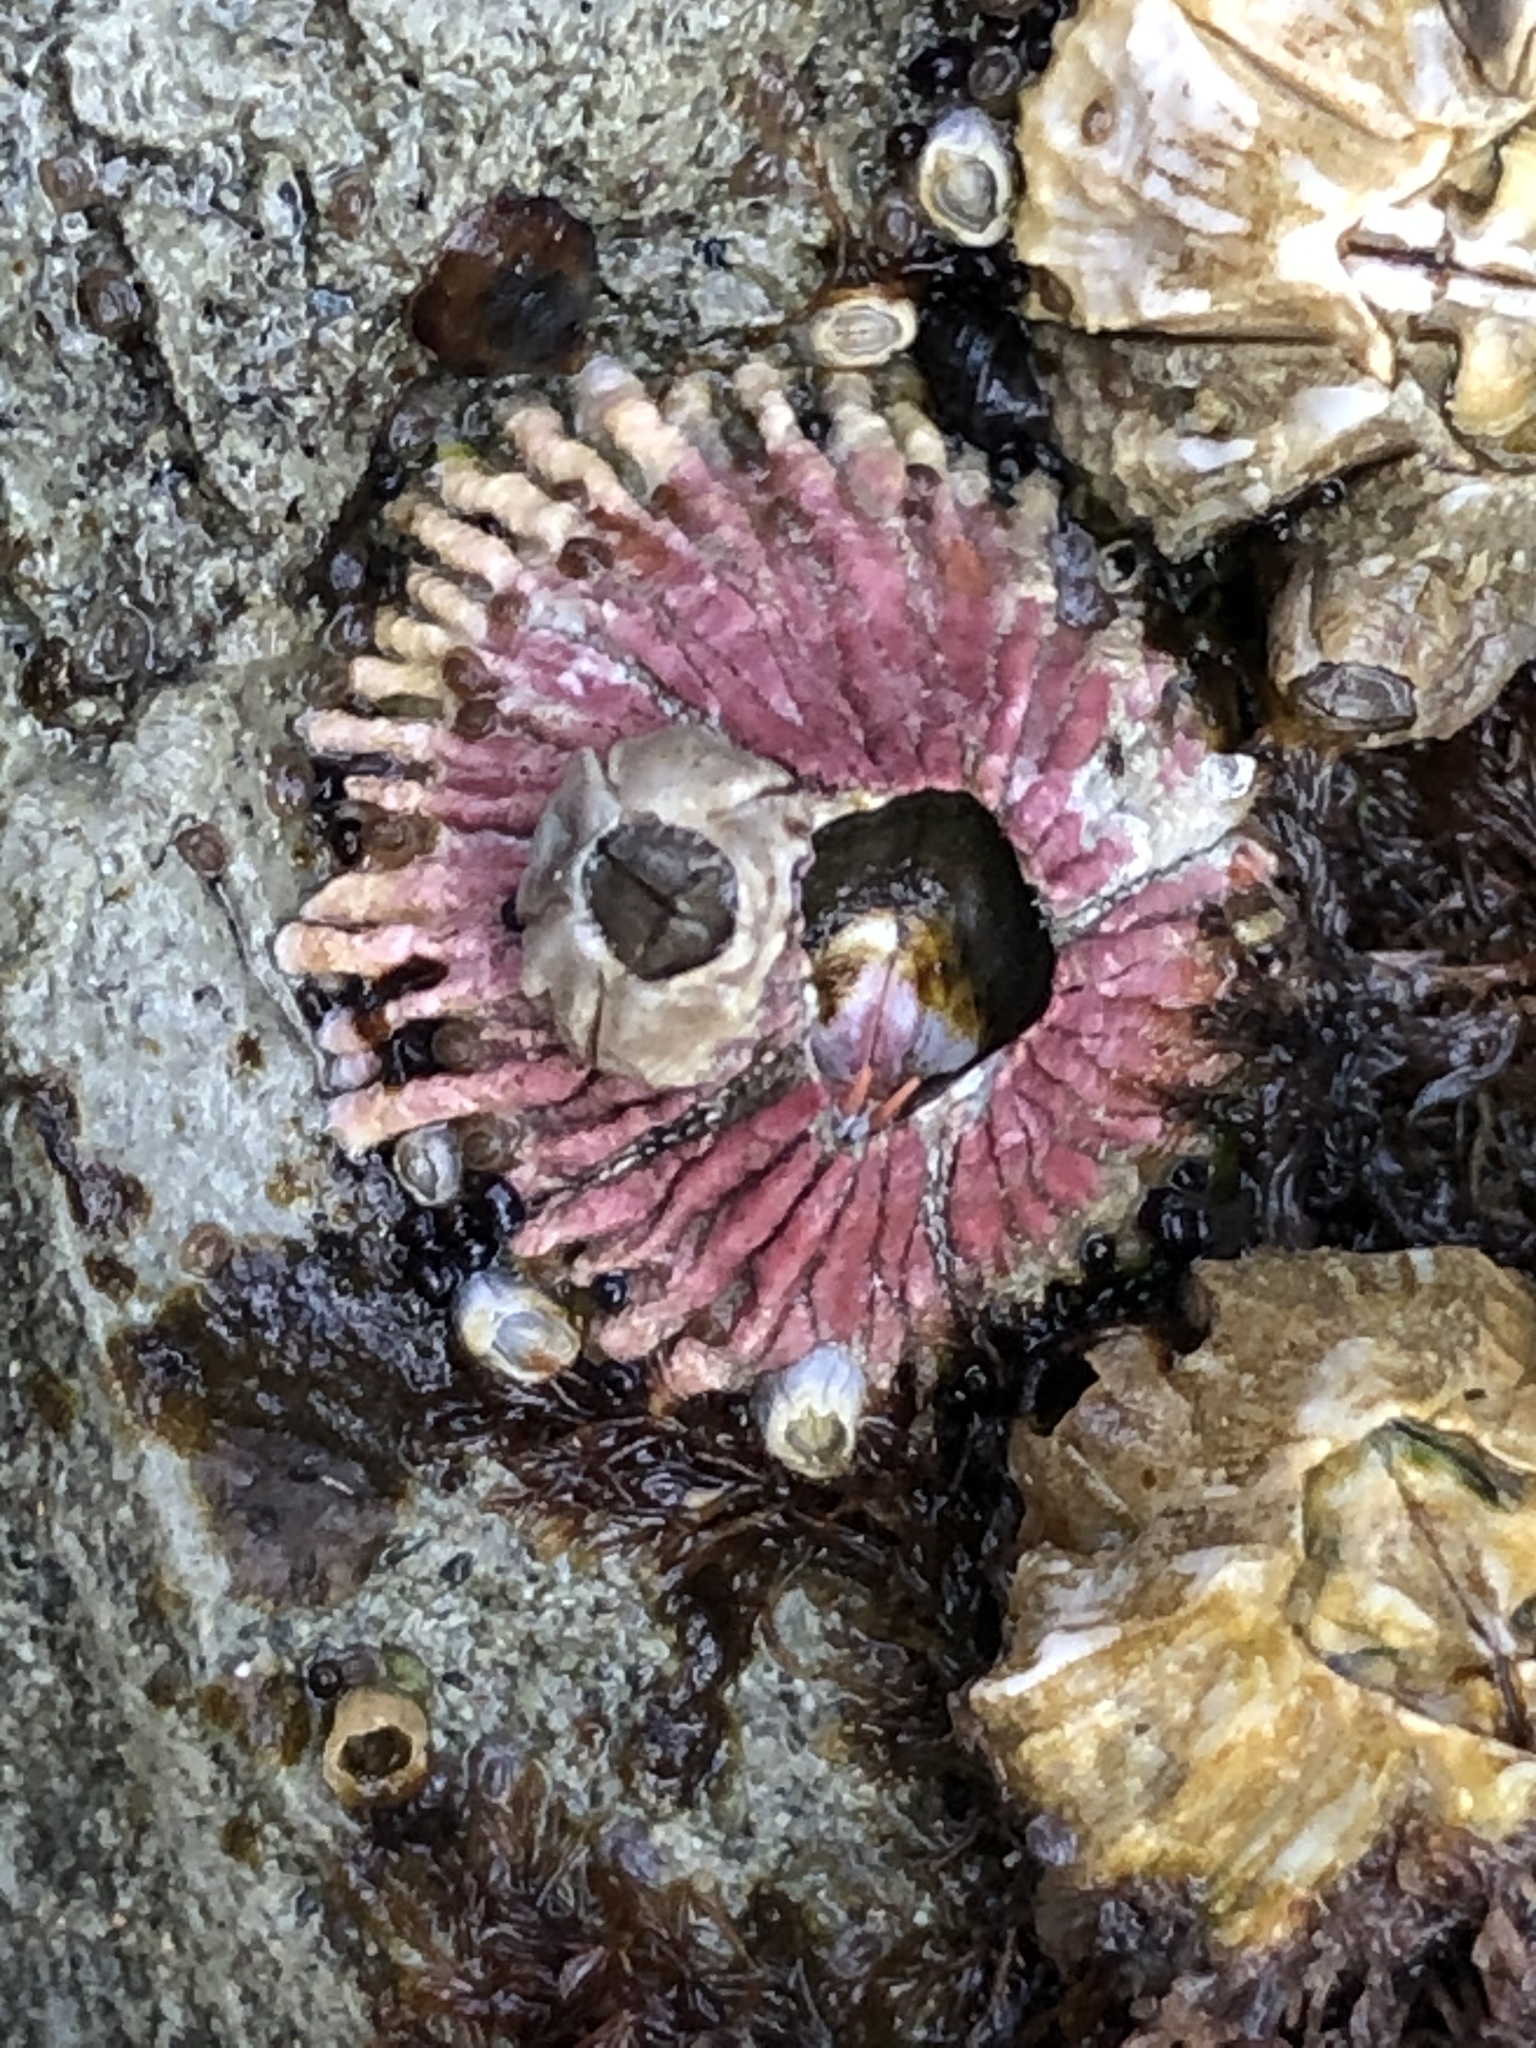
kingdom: Animalia
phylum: Arthropoda
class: Maxillopoda
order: Sessilia
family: Tetraclitidae
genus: Tetraclita
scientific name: Tetraclita rubescens
